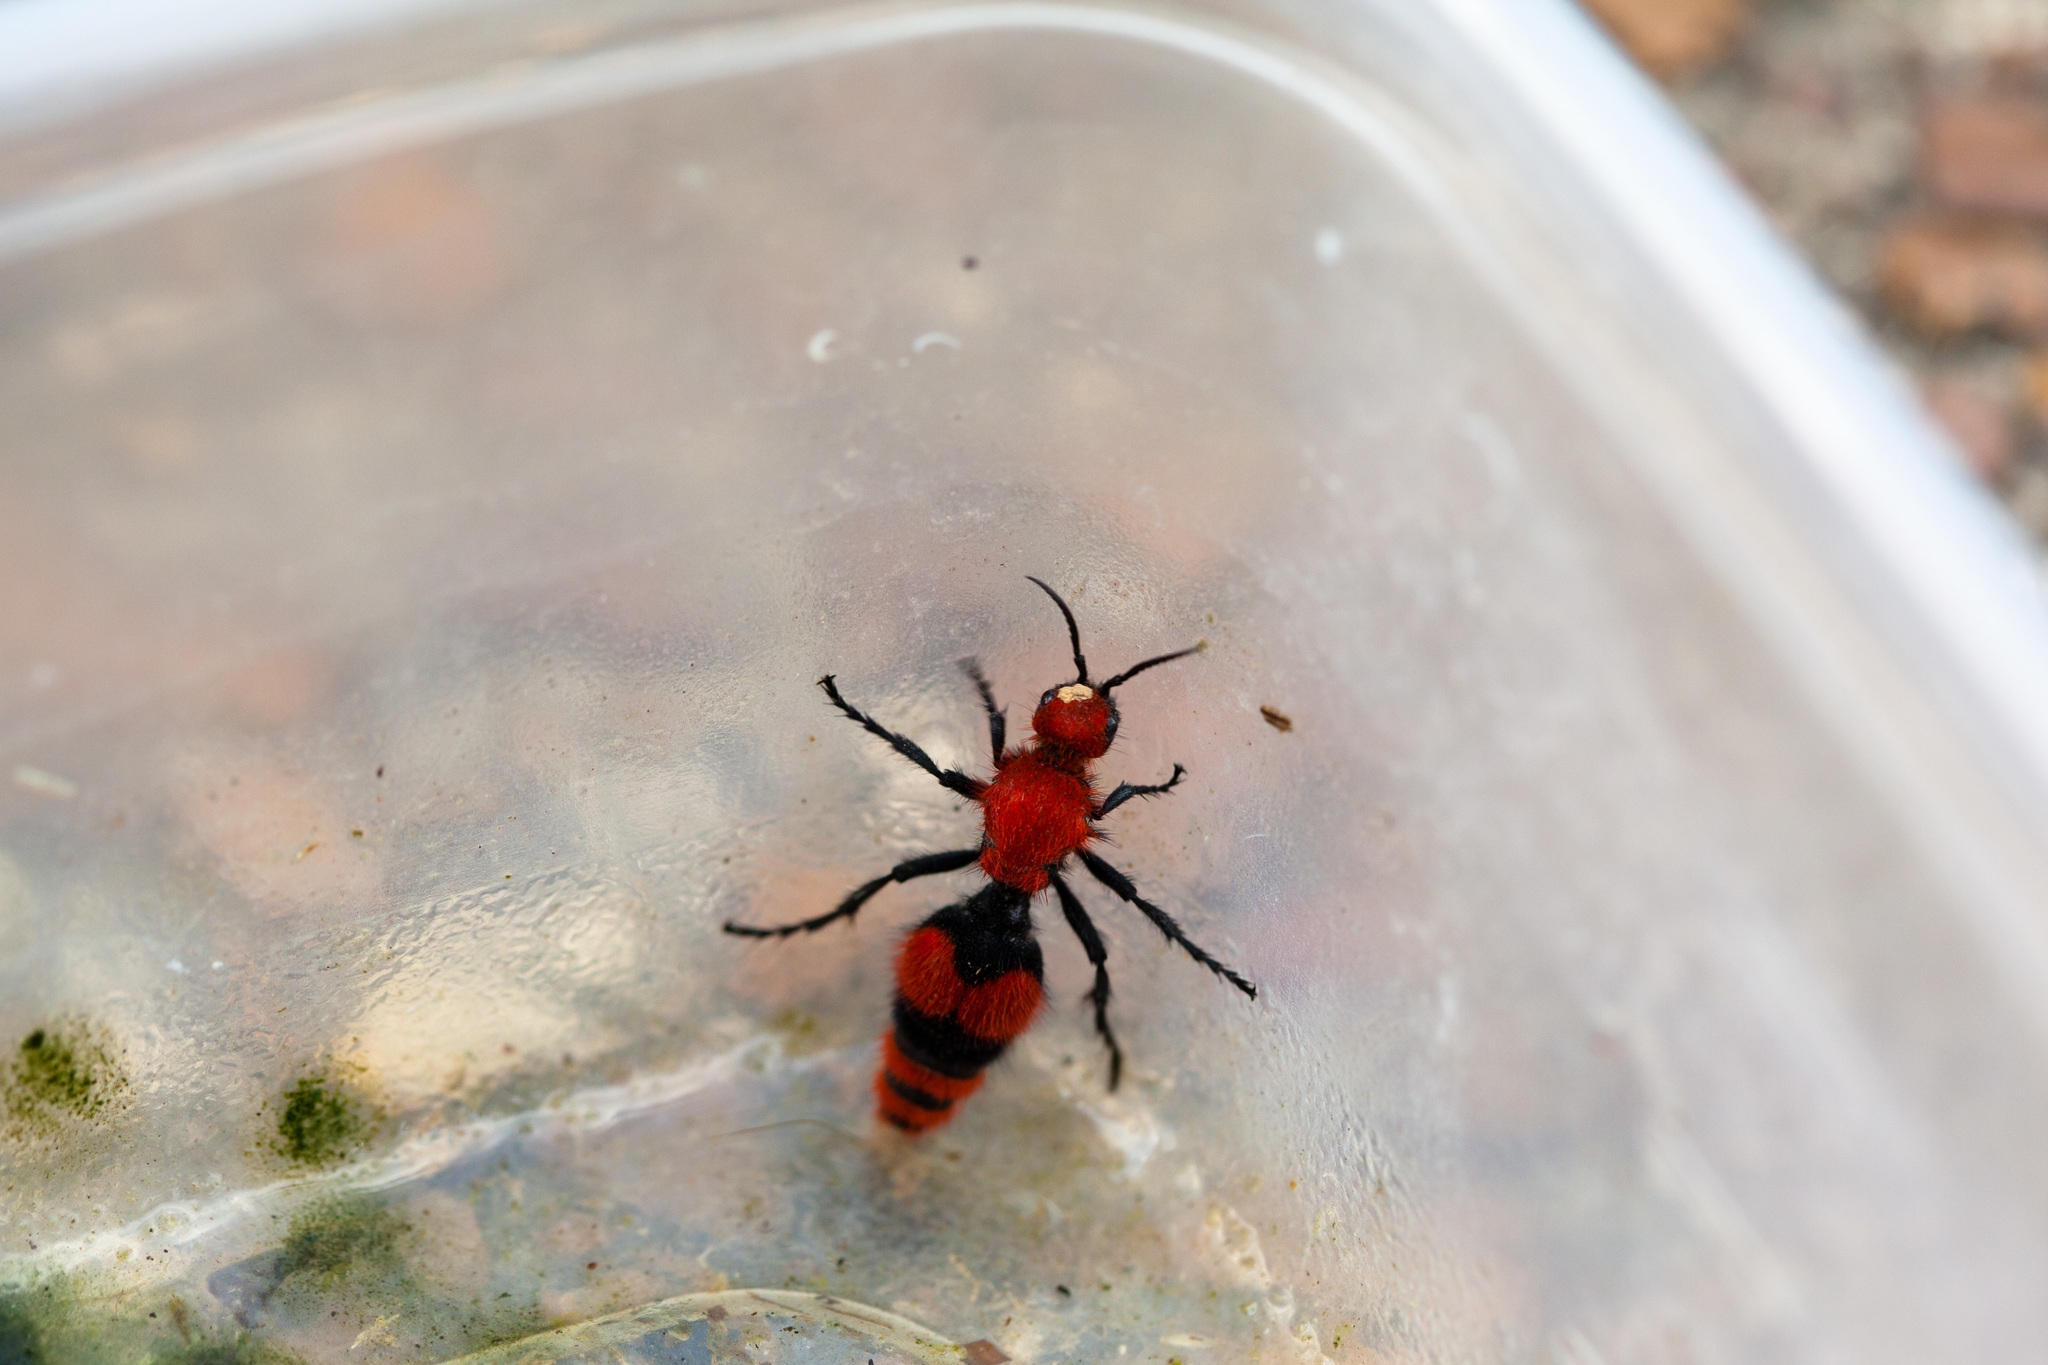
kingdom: Animalia
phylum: Arthropoda
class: Insecta
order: Hymenoptera
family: Mutillidae
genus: Dasymutilla
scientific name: Dasymutilla occidentalis
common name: Common eastern velvet ant
